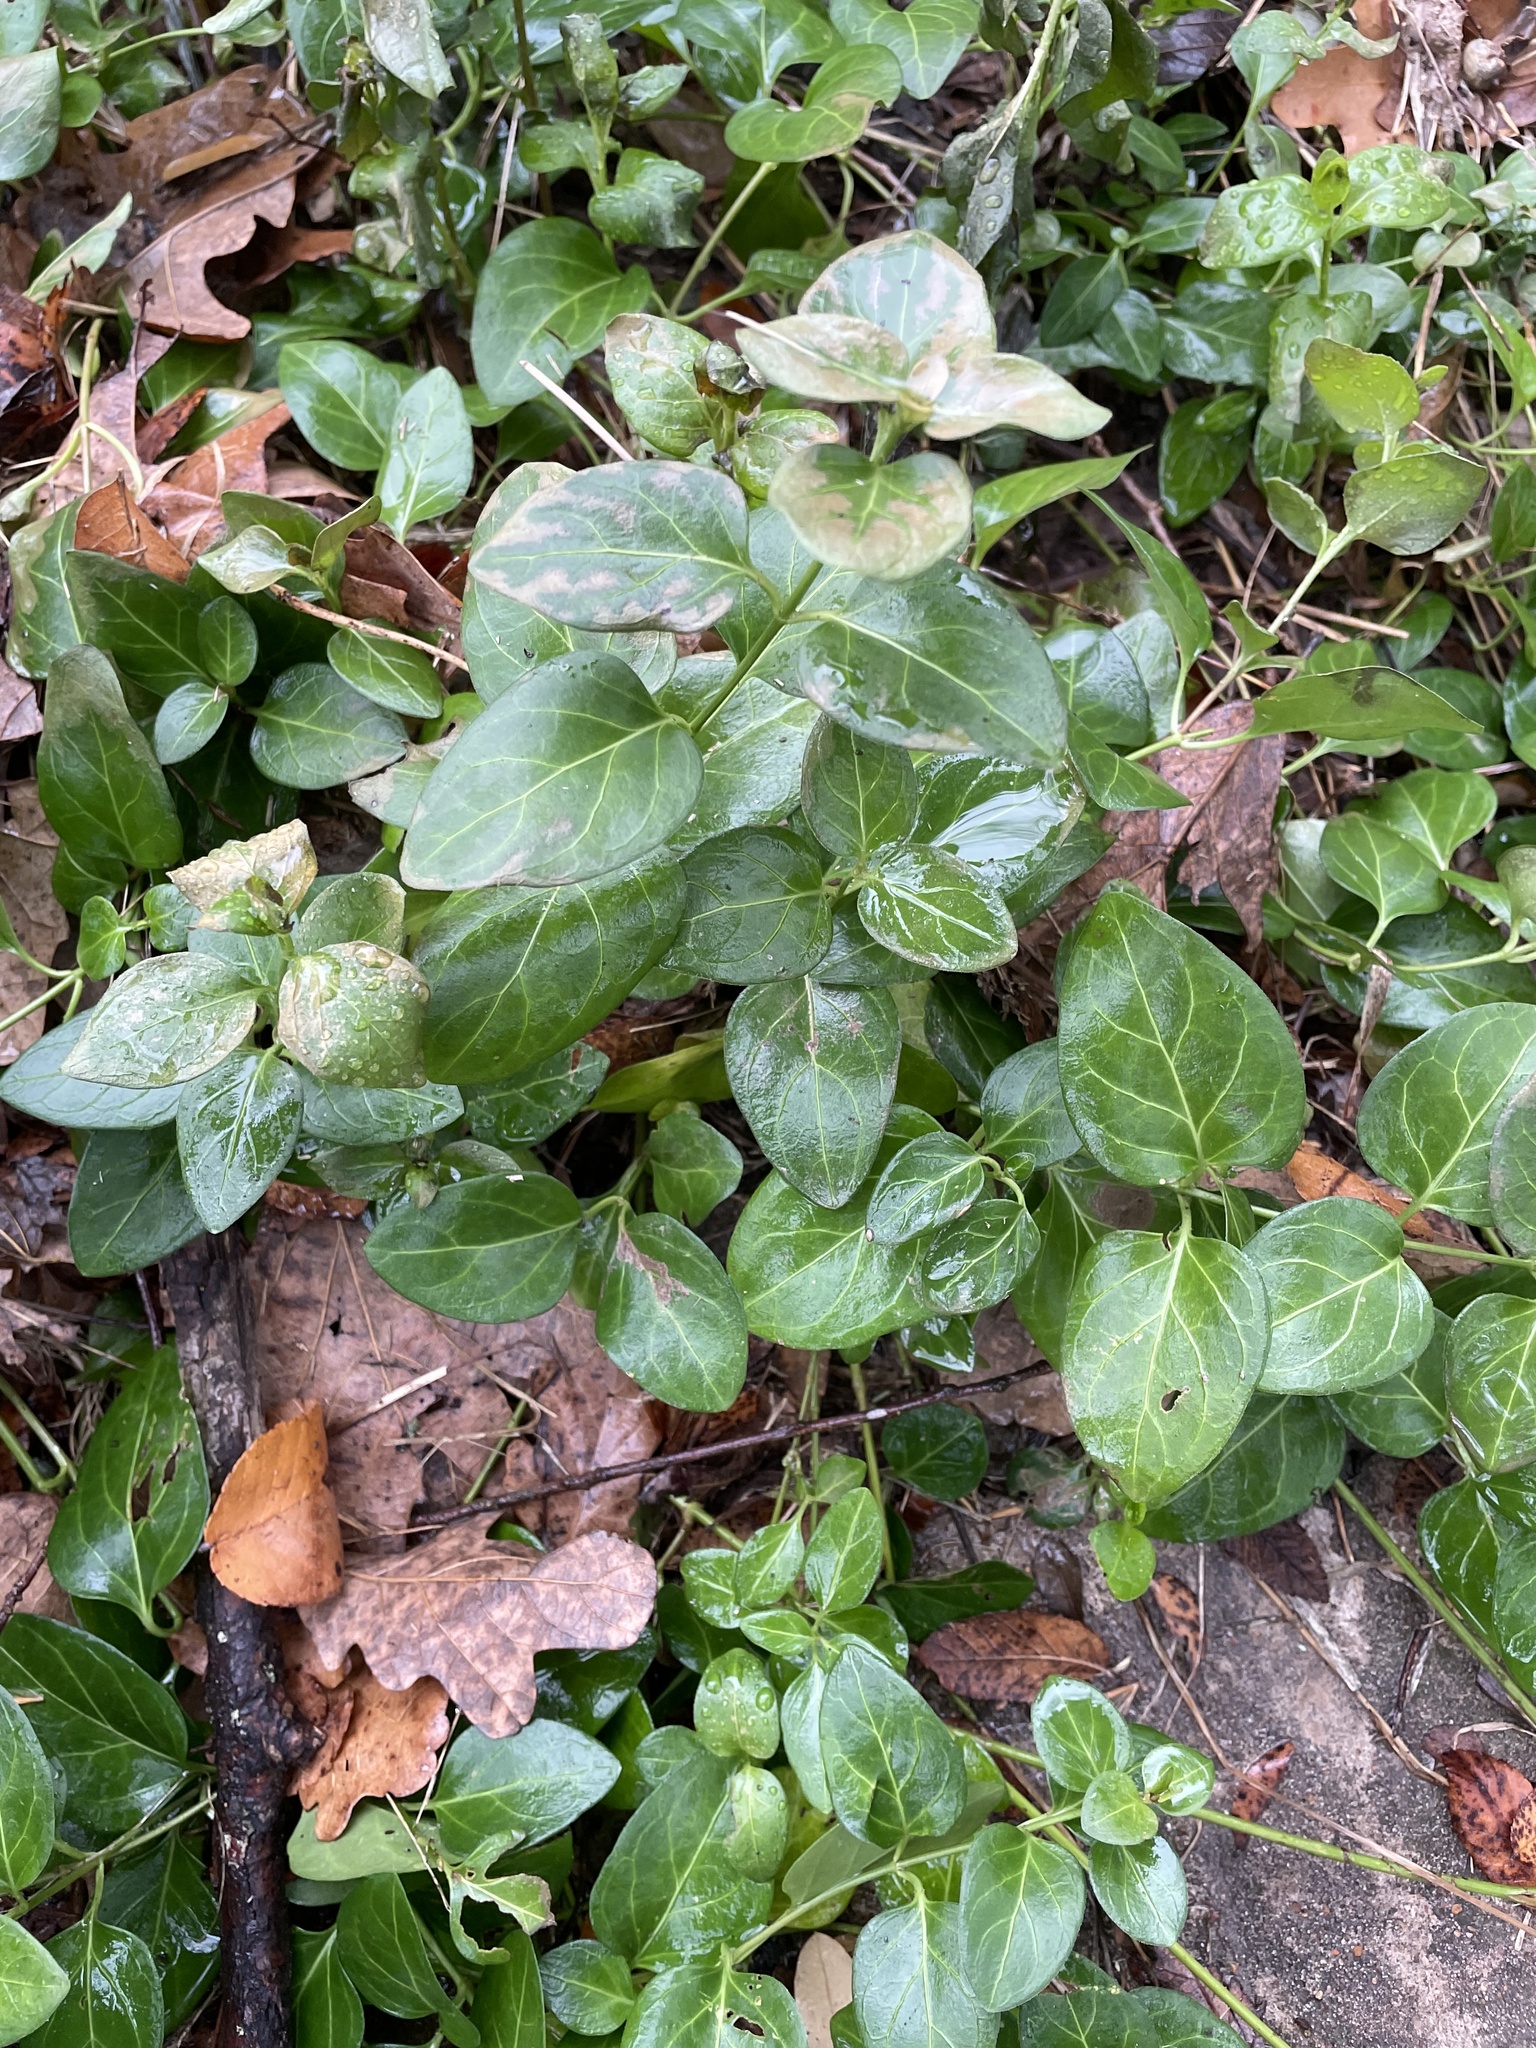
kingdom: Plantae
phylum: Tracheophyta
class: Magnoliopsida
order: Gentianales
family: Apocynaceae
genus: Vinca
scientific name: Vinca major
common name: Greater periwinkle
